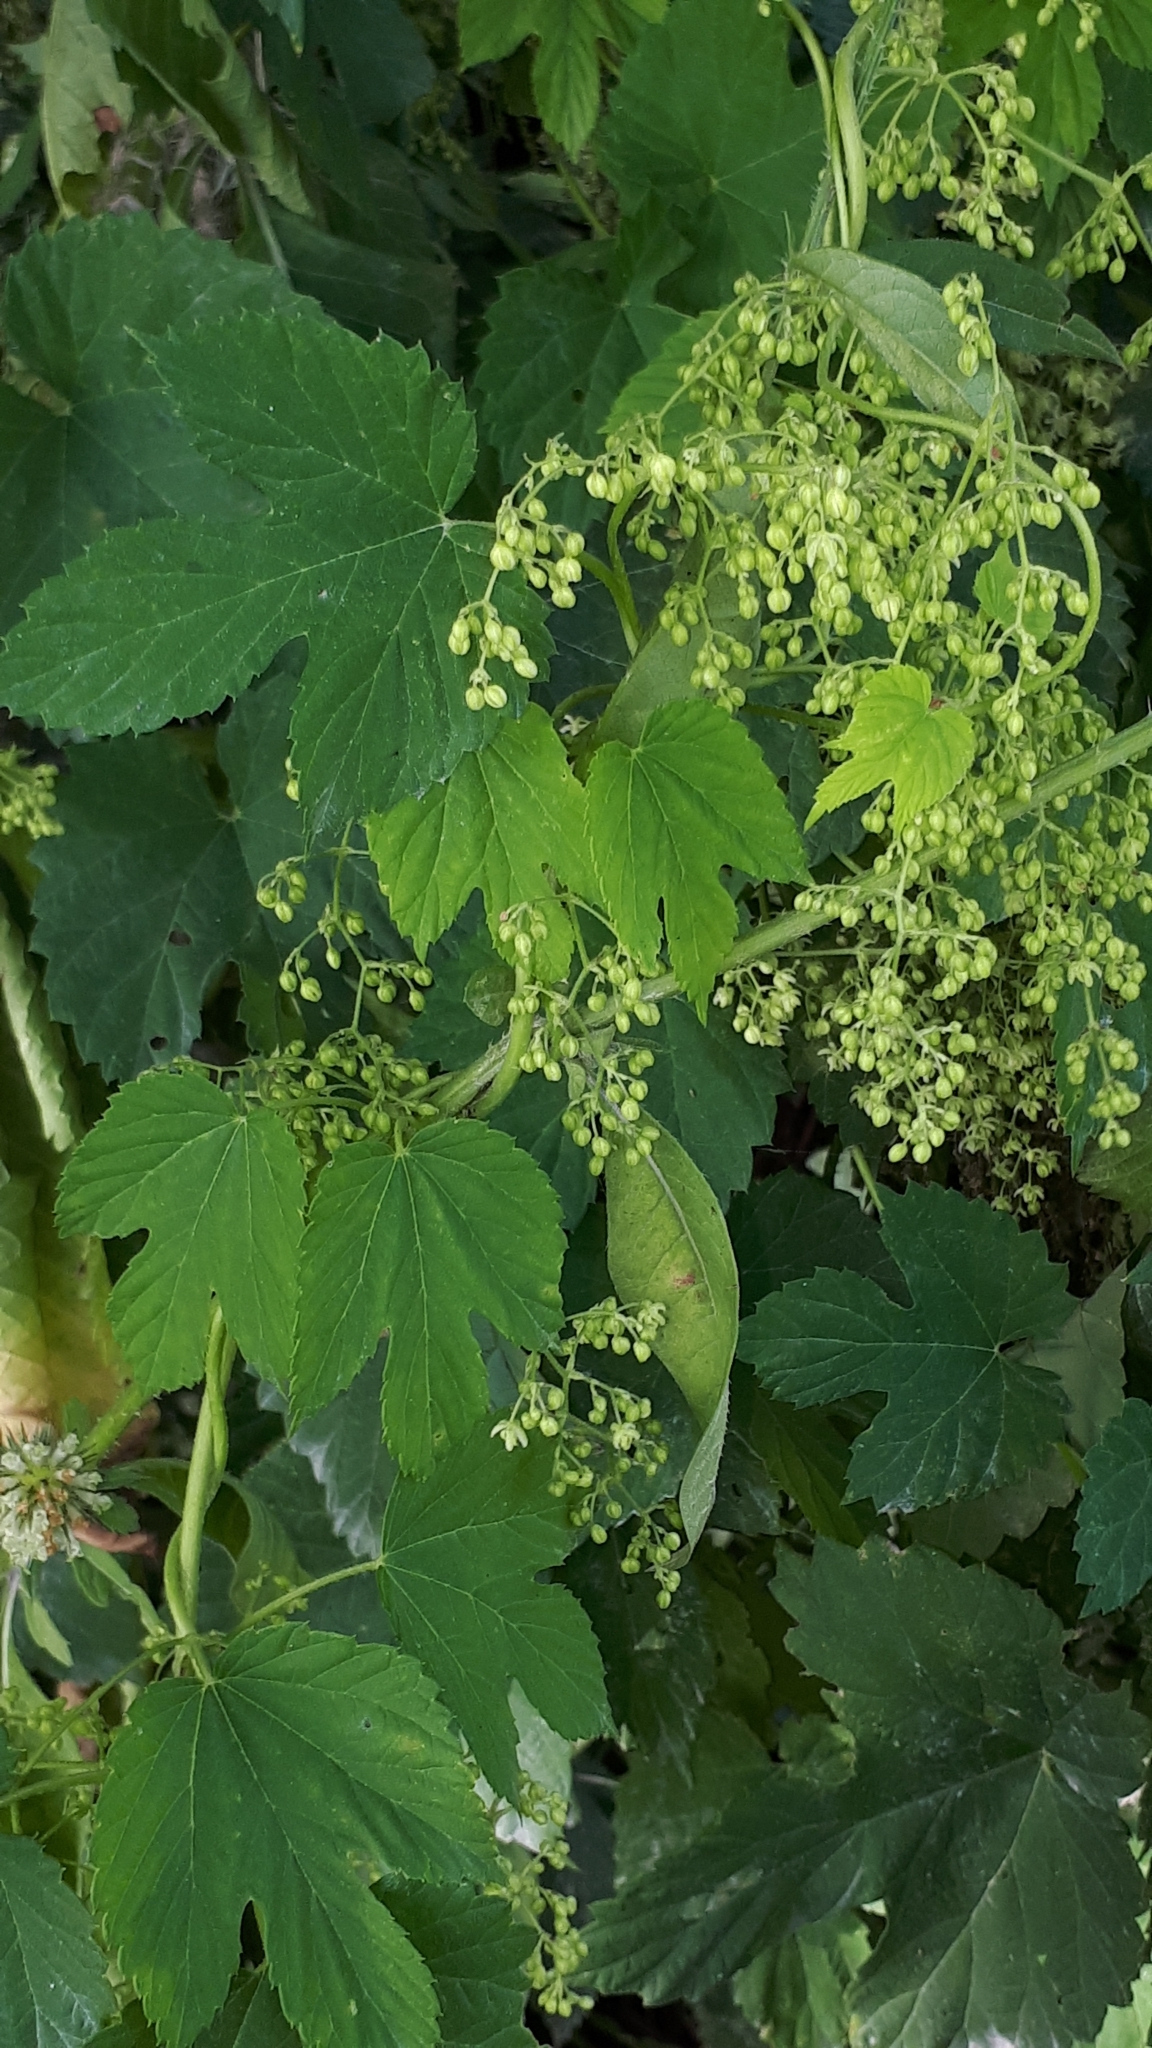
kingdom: Plantae
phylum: Tracheophyta
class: Magnoliopsida
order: Rosales
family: Cannabaceae
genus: Humulus
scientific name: Humulus lupulus
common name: Hop
